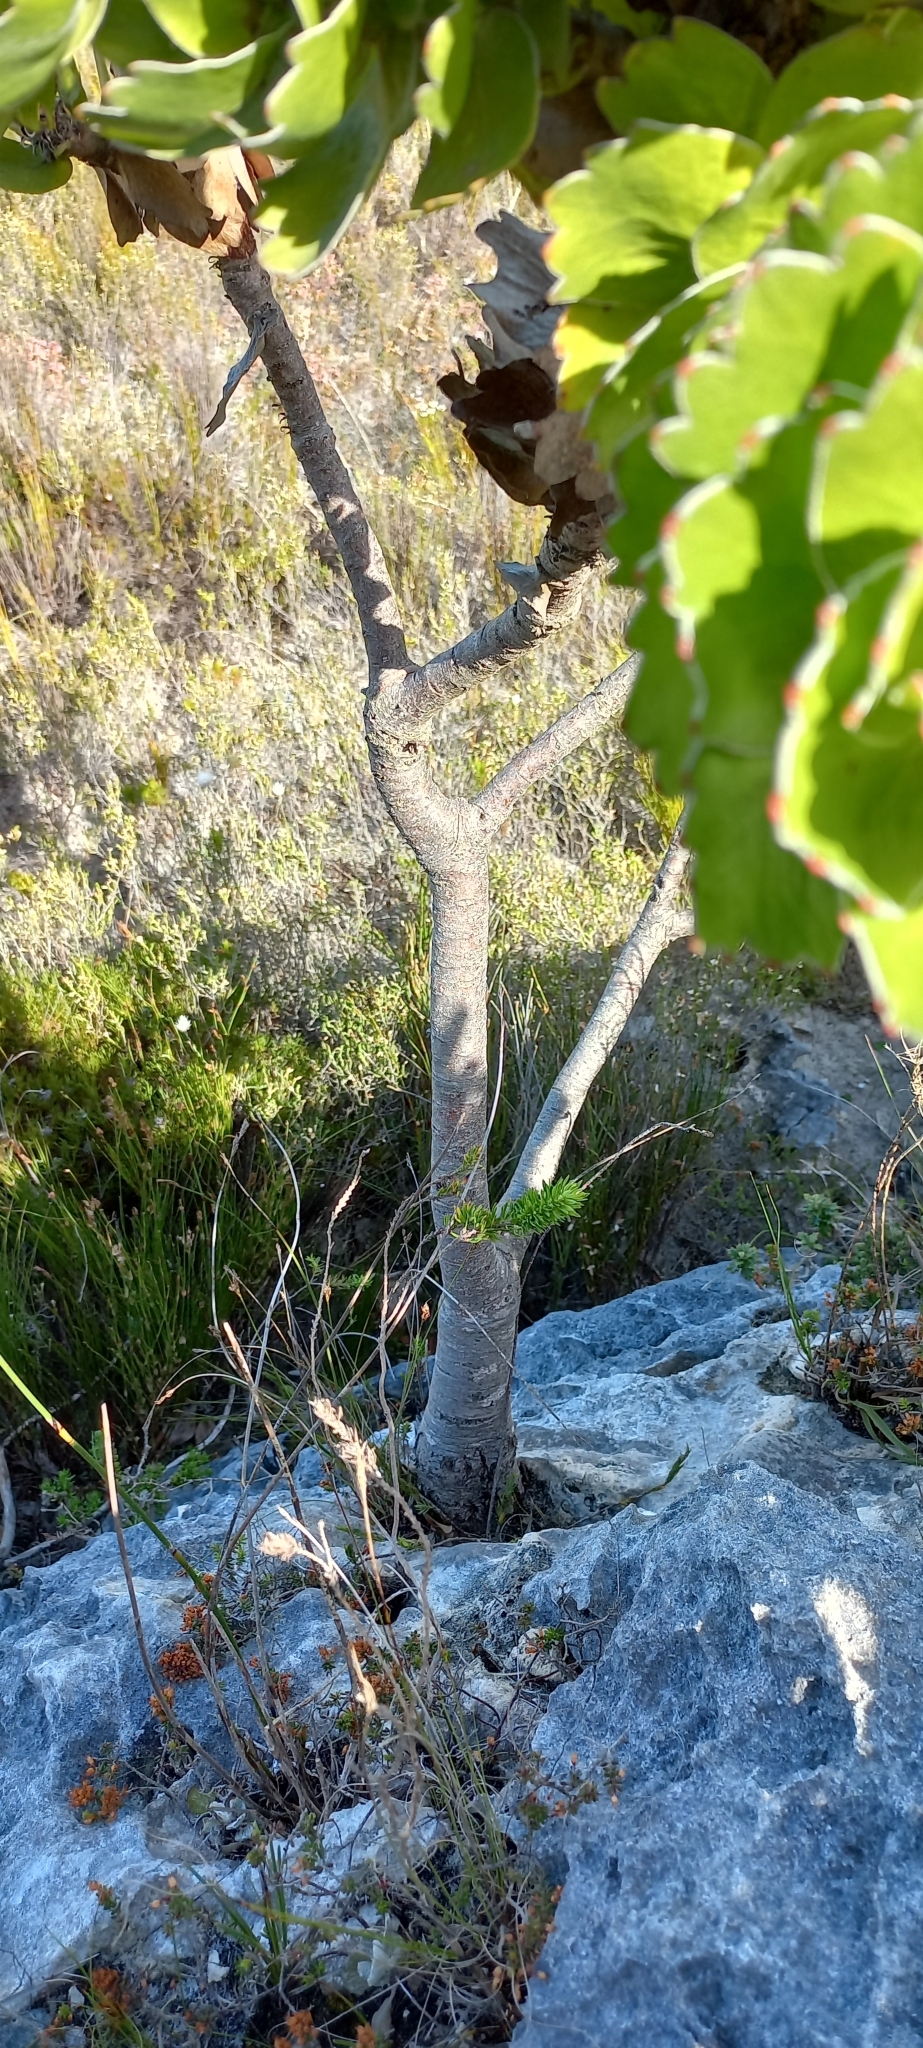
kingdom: Plantae
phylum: Tracheophyta
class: Magnoliopsida
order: Proteales
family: Proteaceae
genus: Leucospermum
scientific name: Leucospermum patersonii
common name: False tree pincushion
